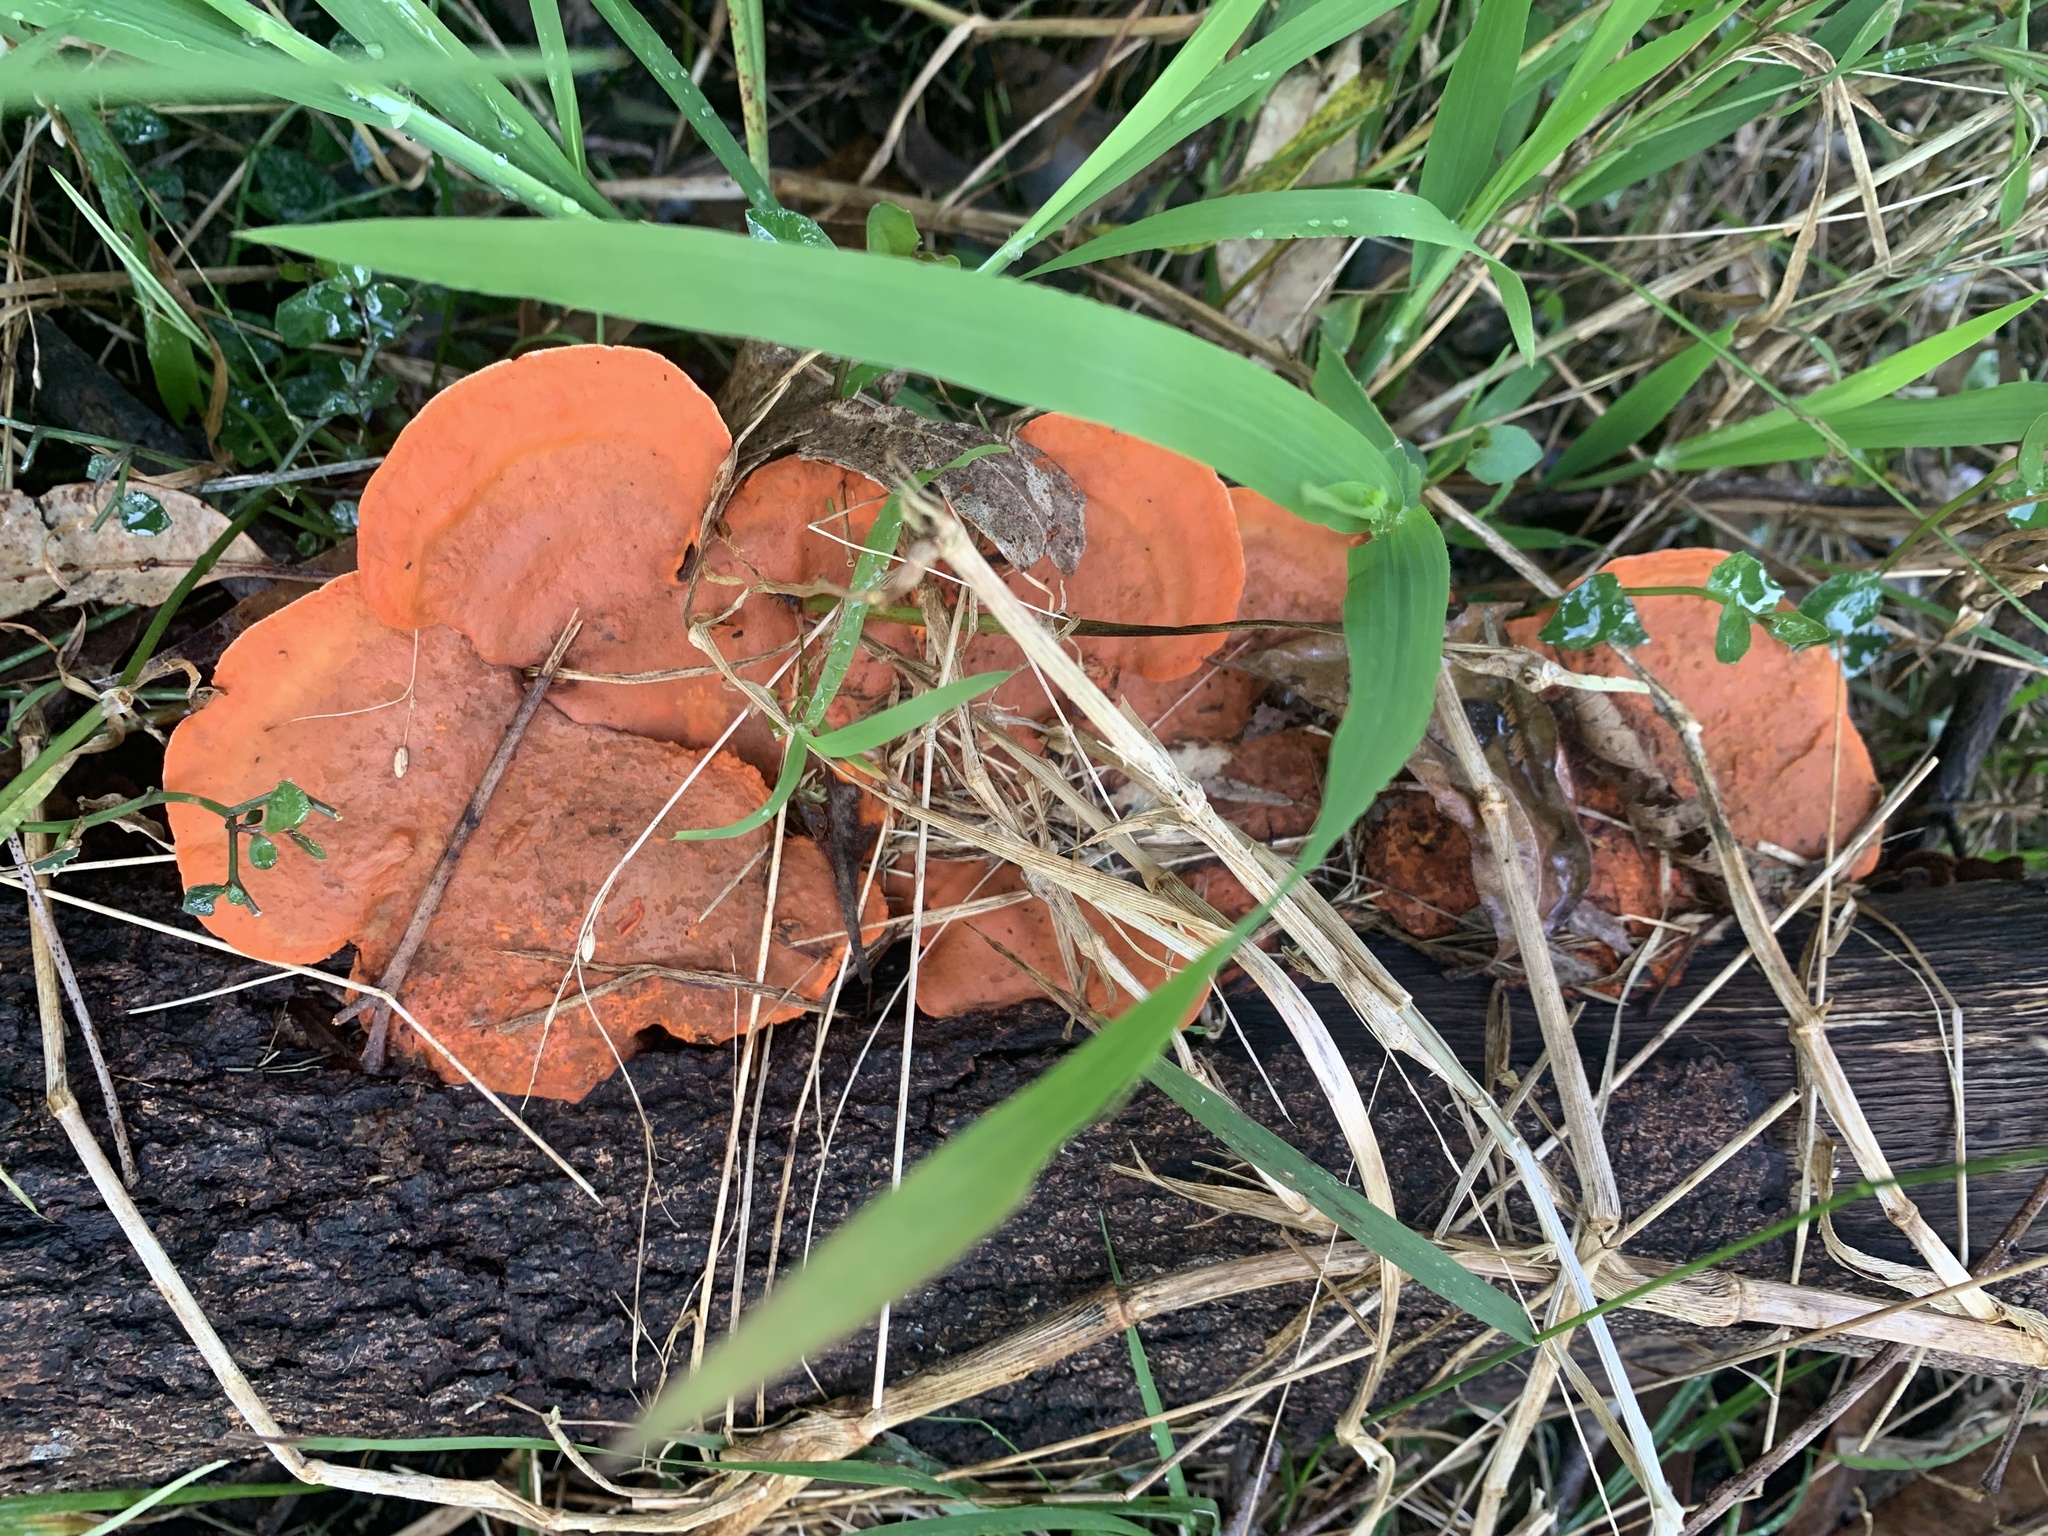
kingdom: Fungi
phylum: Basidiomycota
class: Agaricomycetes
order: Polyporales
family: Polyporaceae
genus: Trametes
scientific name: Trametes coccinea
